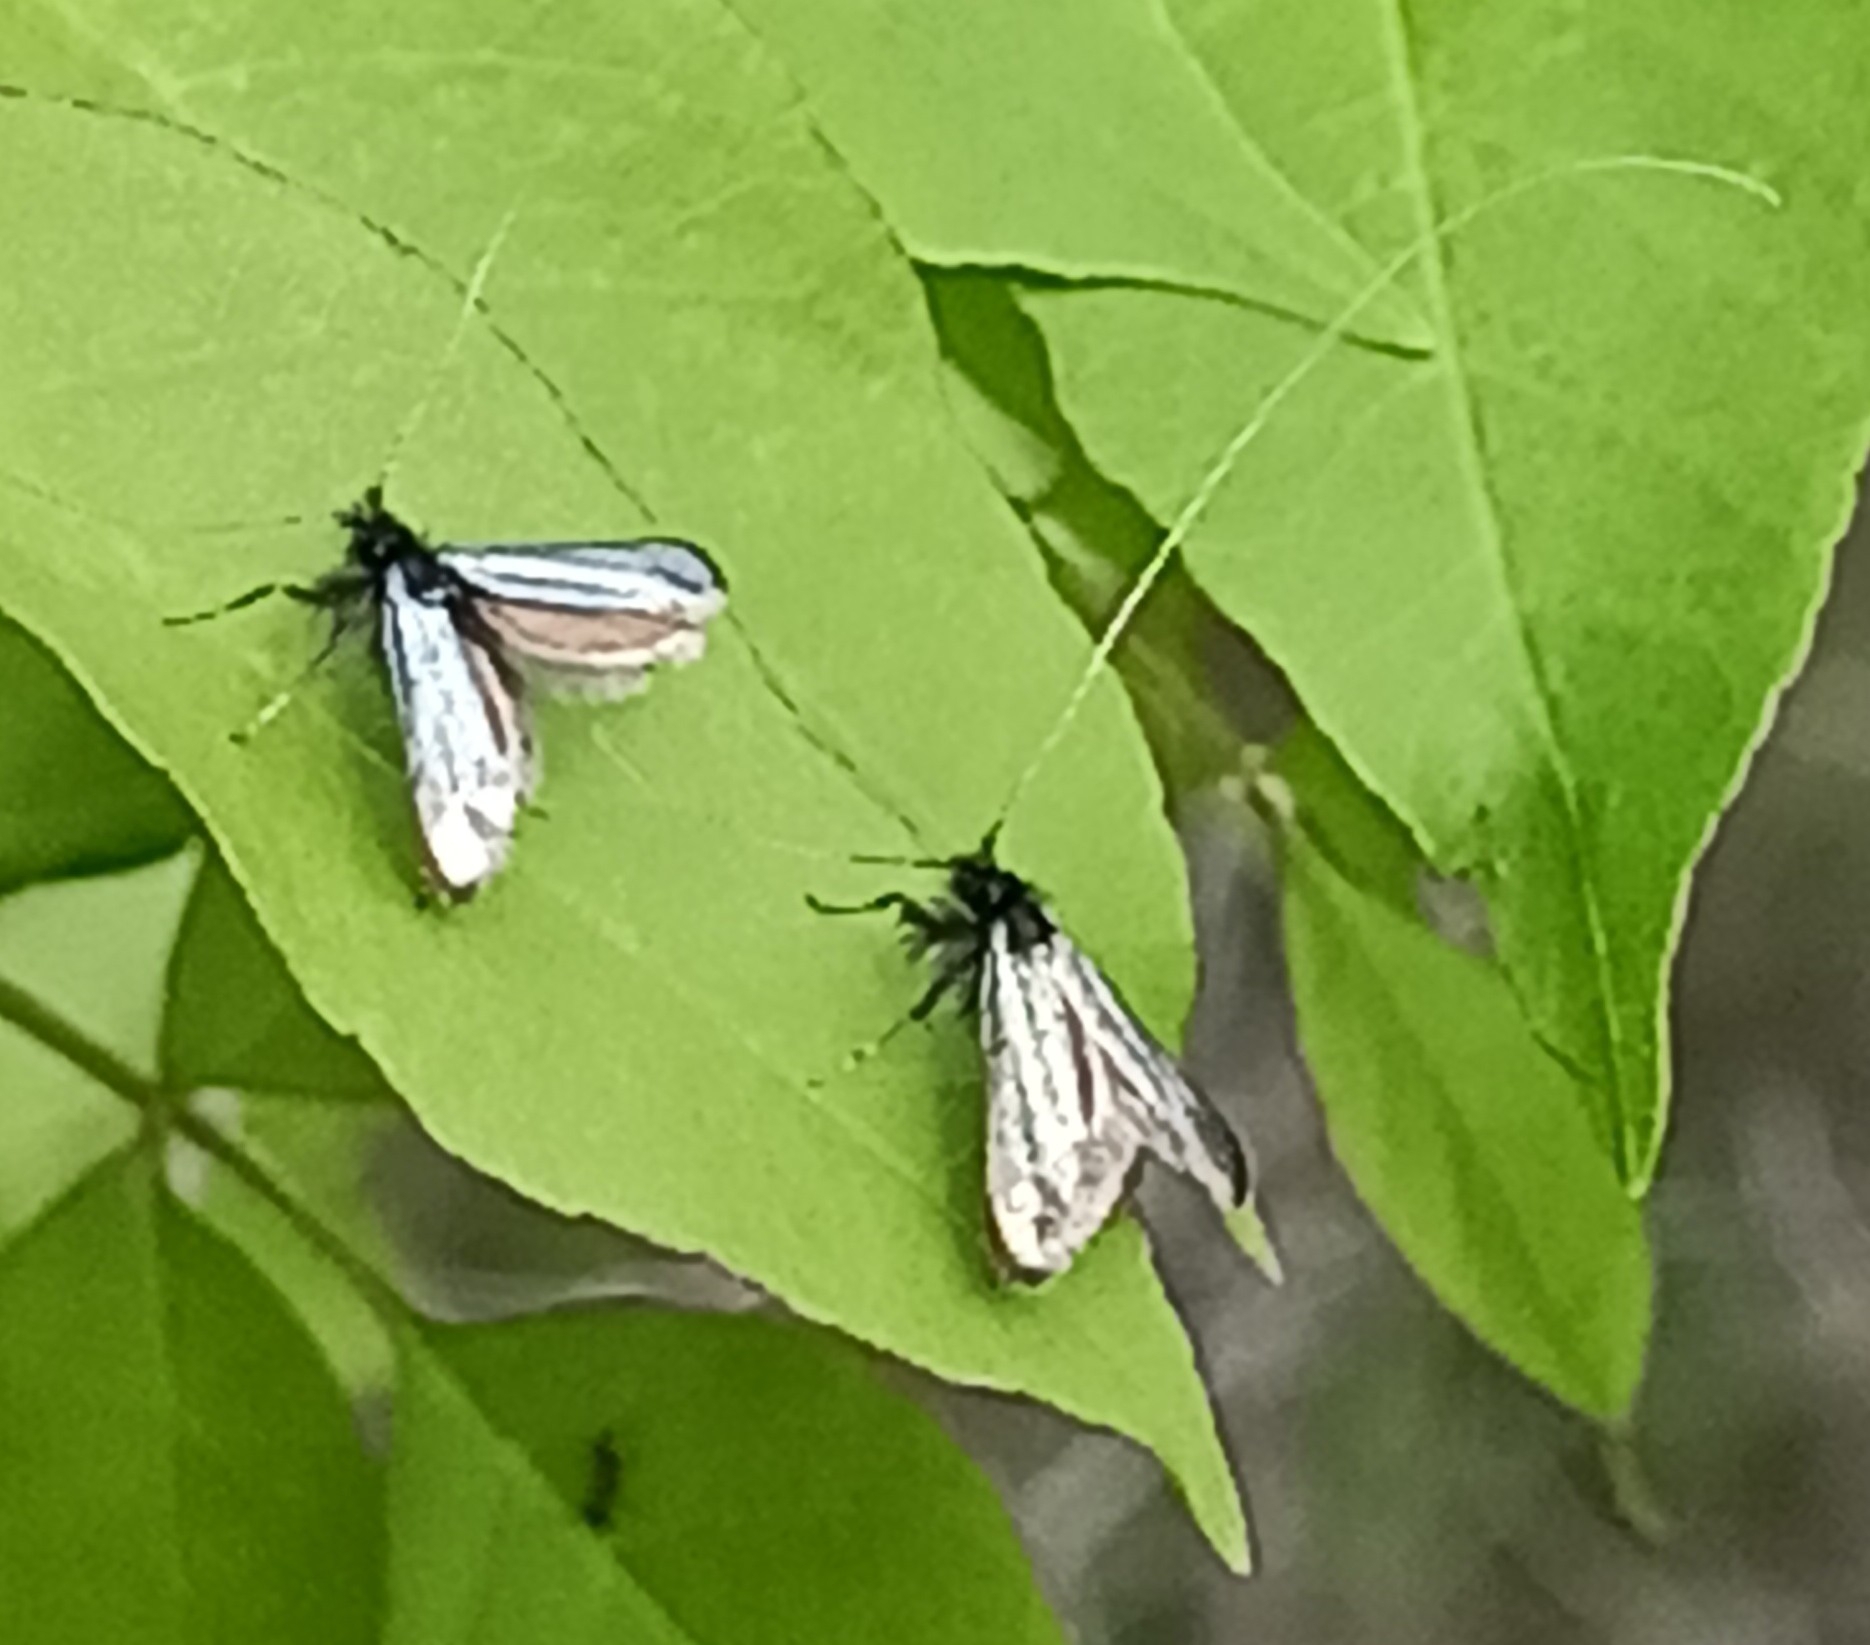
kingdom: Animalia
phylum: Arthropoda
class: Insecta
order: Lepidoptera
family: Adelidae
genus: Adela
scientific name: Adela viridella
